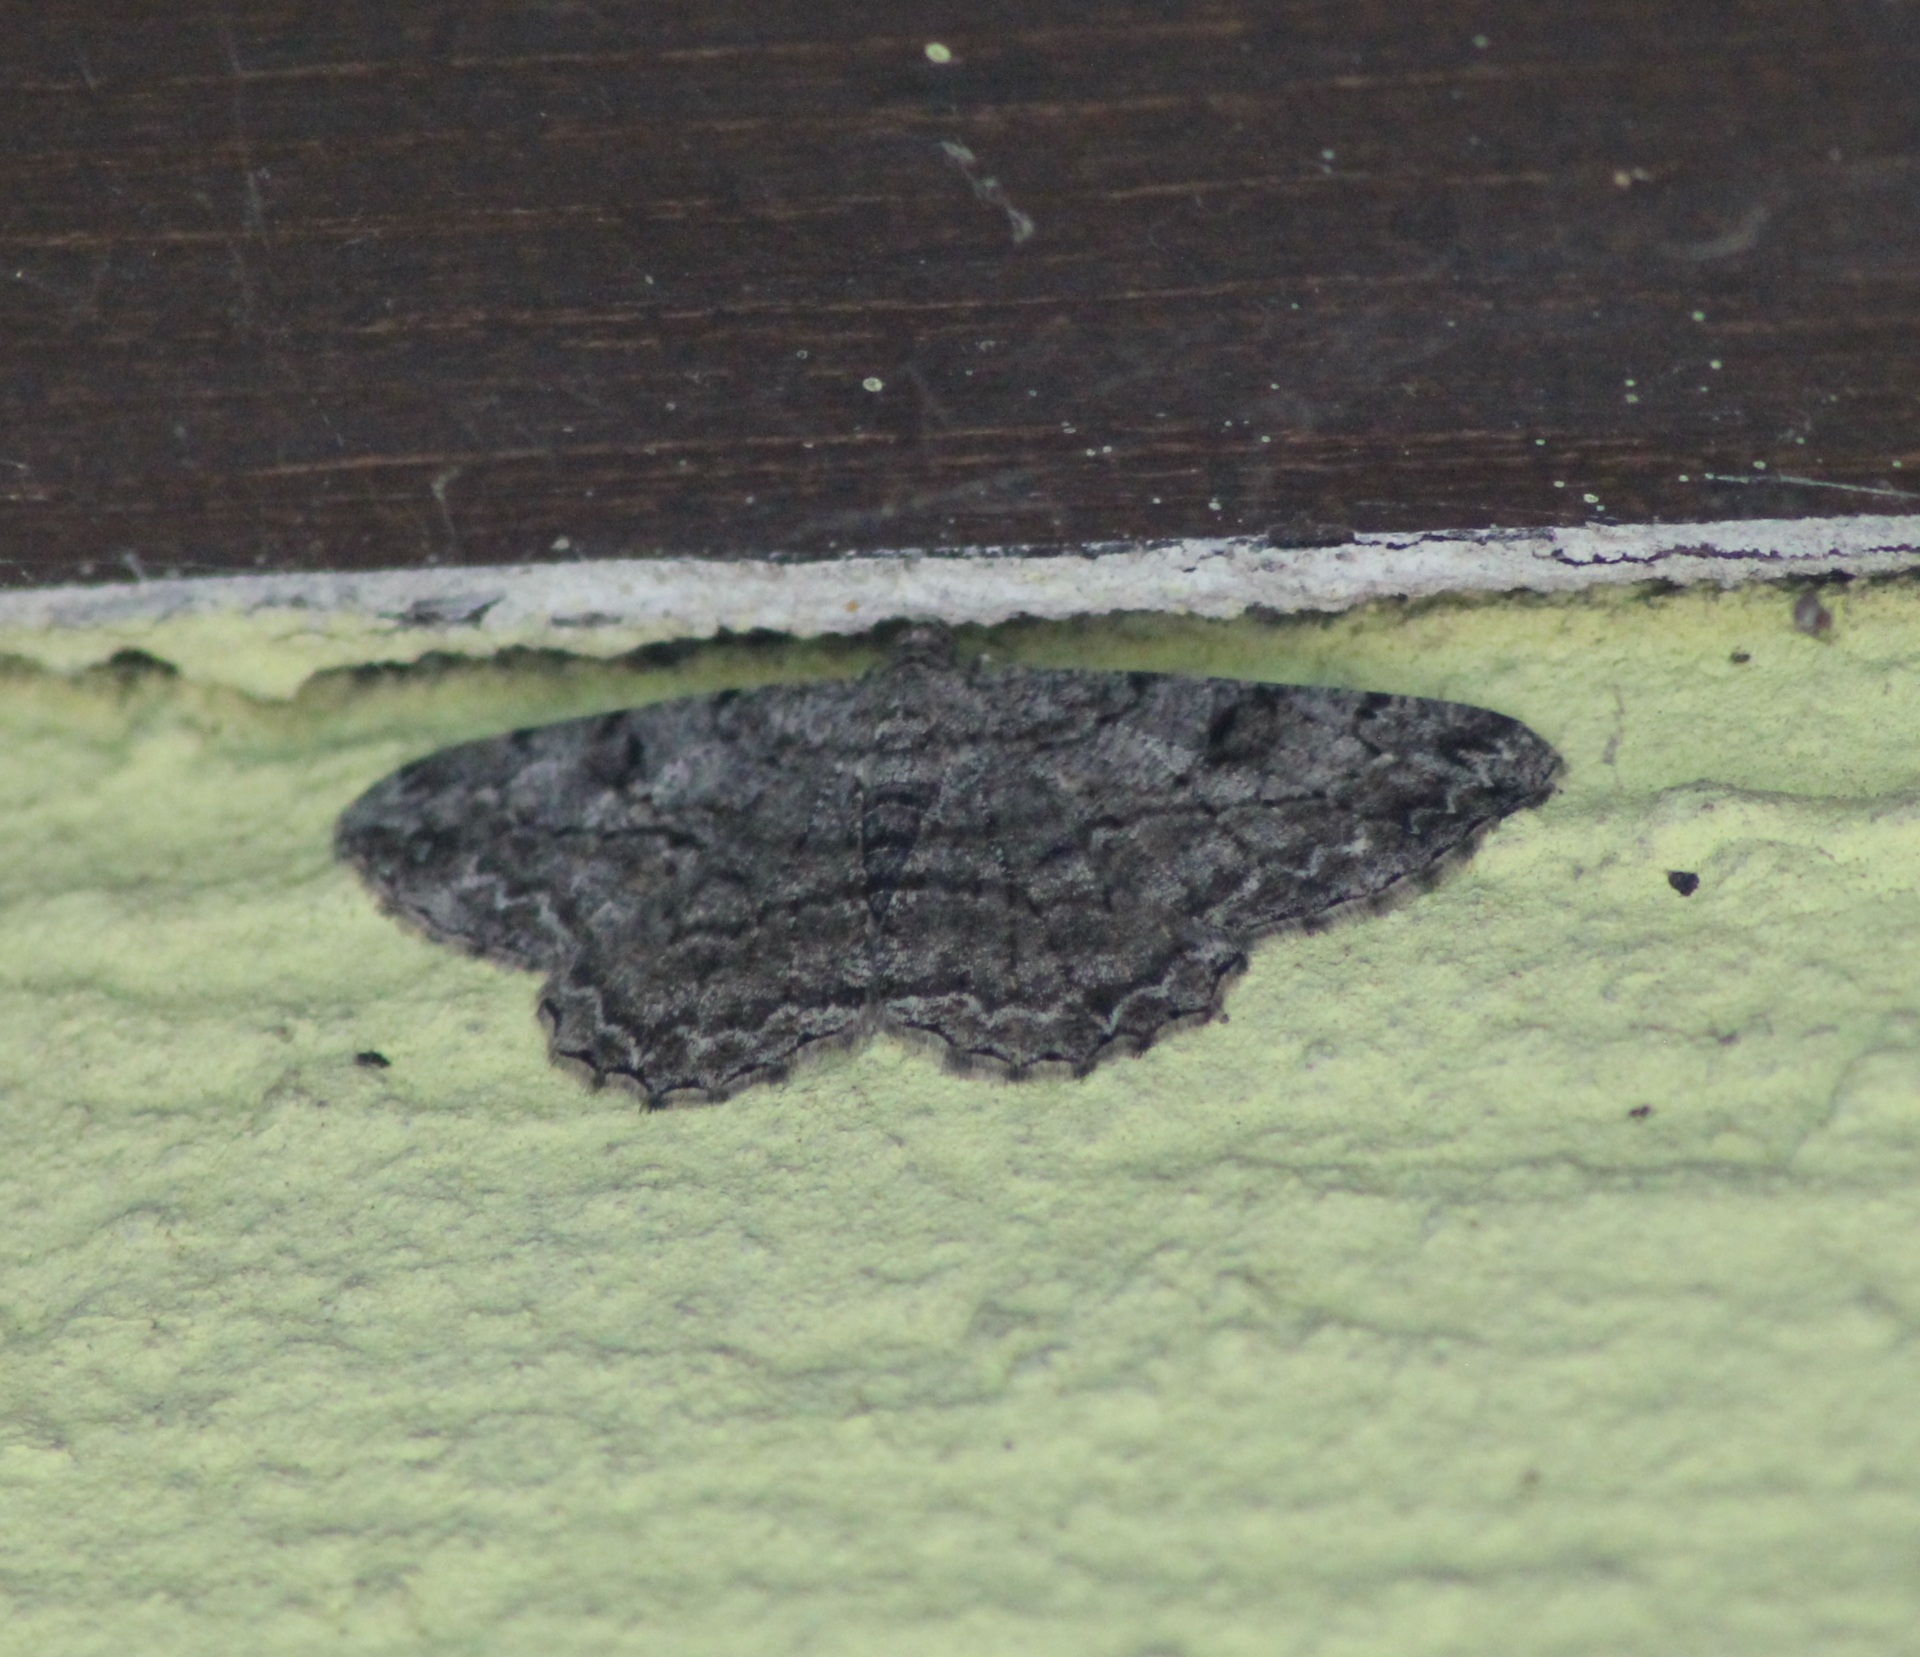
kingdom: Animalia
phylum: Arthropoda
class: Insecta
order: Lepidoptera
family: Geometridae
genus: Peribatodes
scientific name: Peribatodes rhomboidaria
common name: Willow beauty
